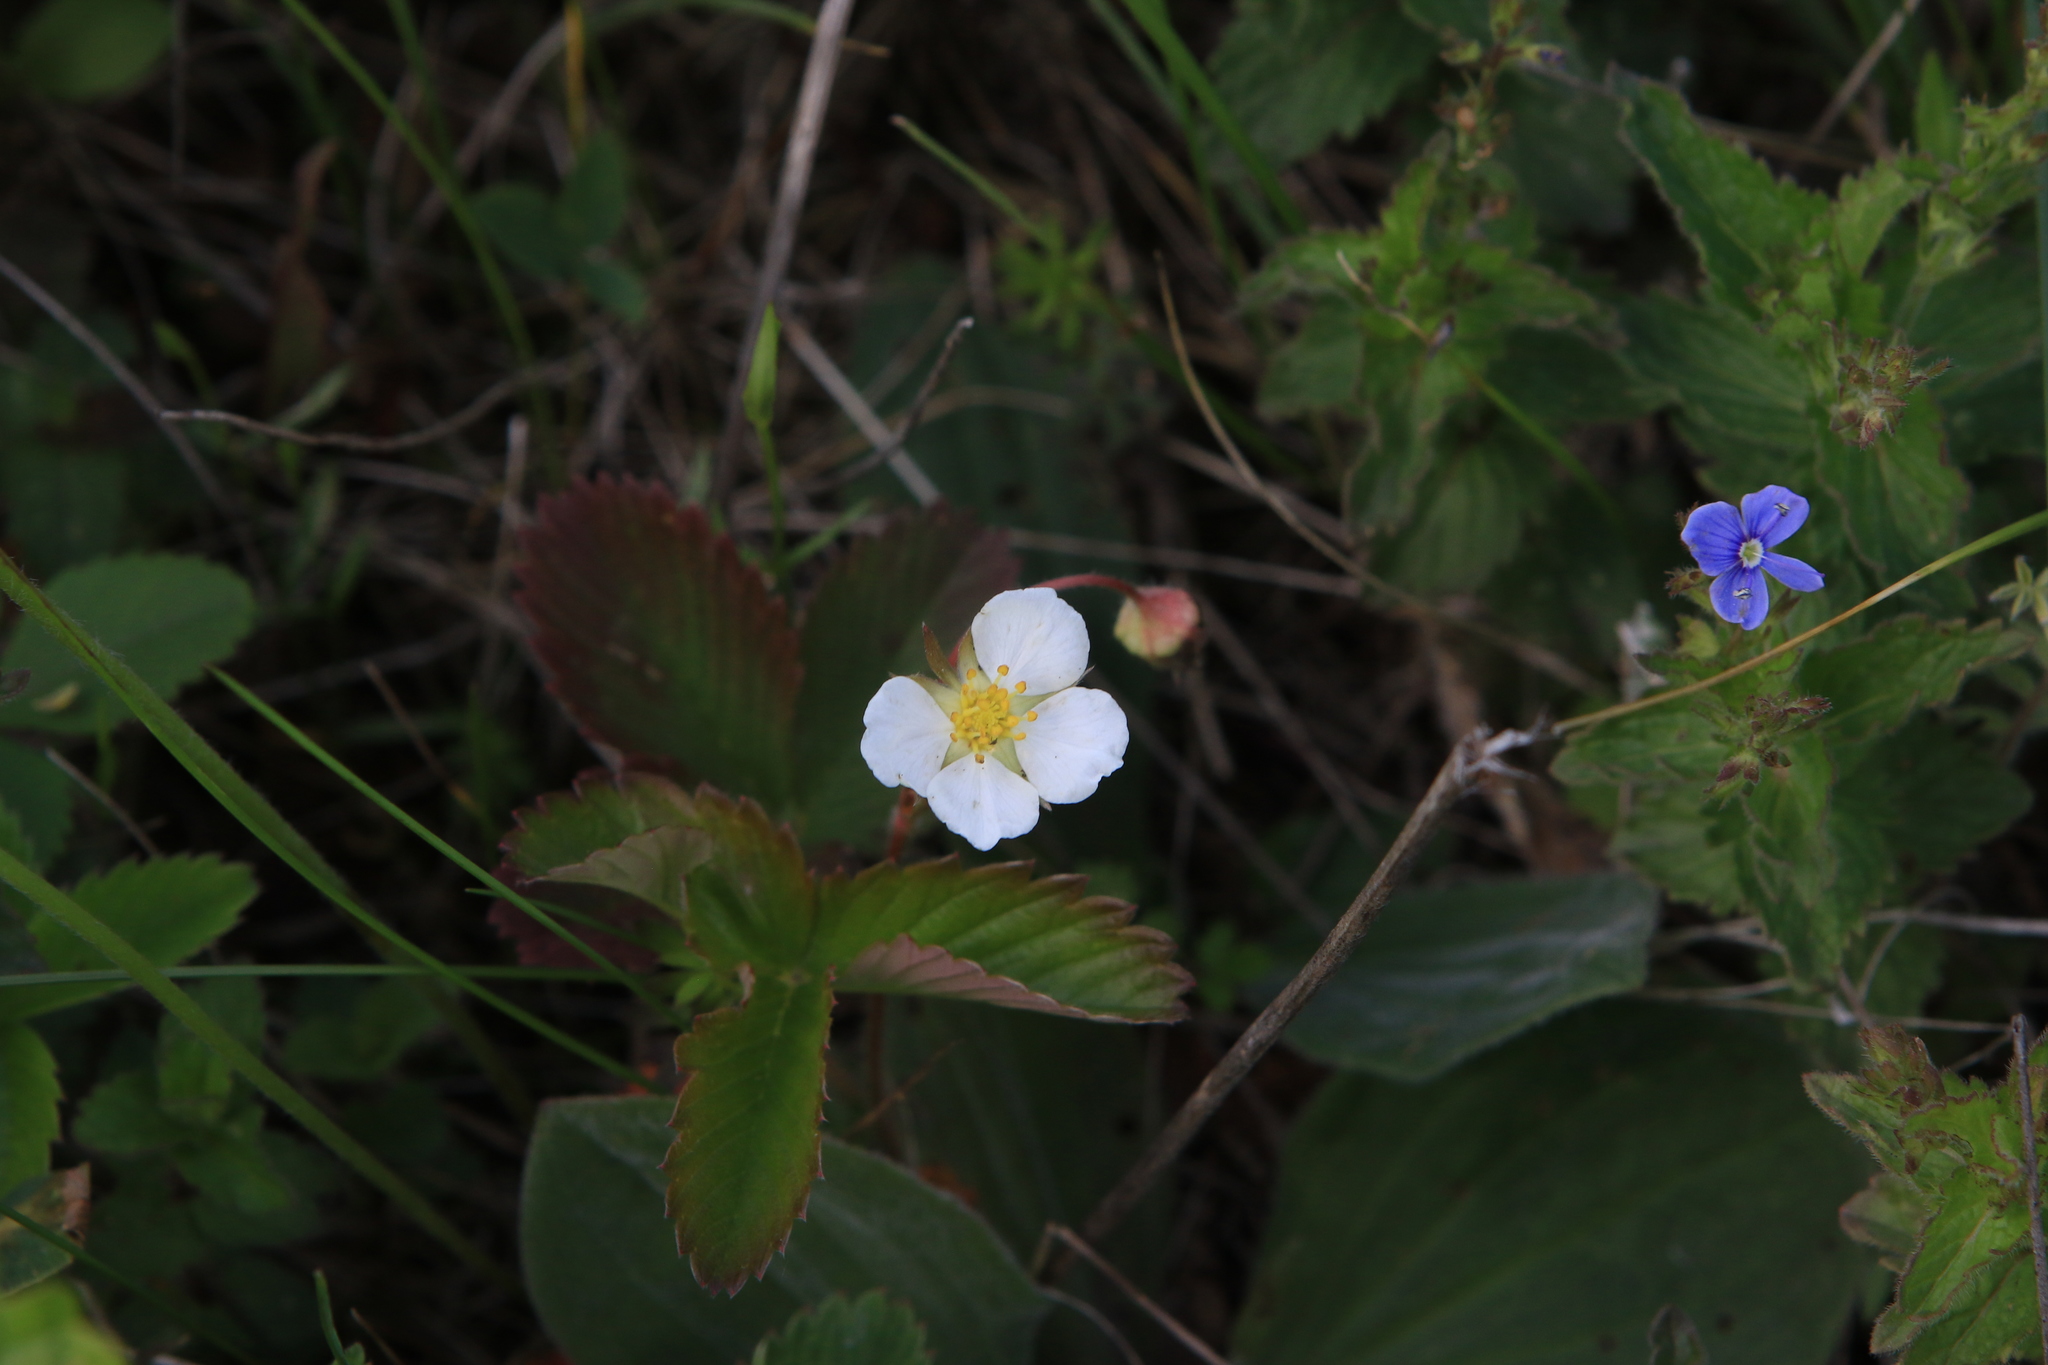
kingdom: Plantae
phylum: Tracheophyta
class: Magnoliopsida
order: Rosales
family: Rosaceae
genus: Fragaria
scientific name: Fragaria viridis
